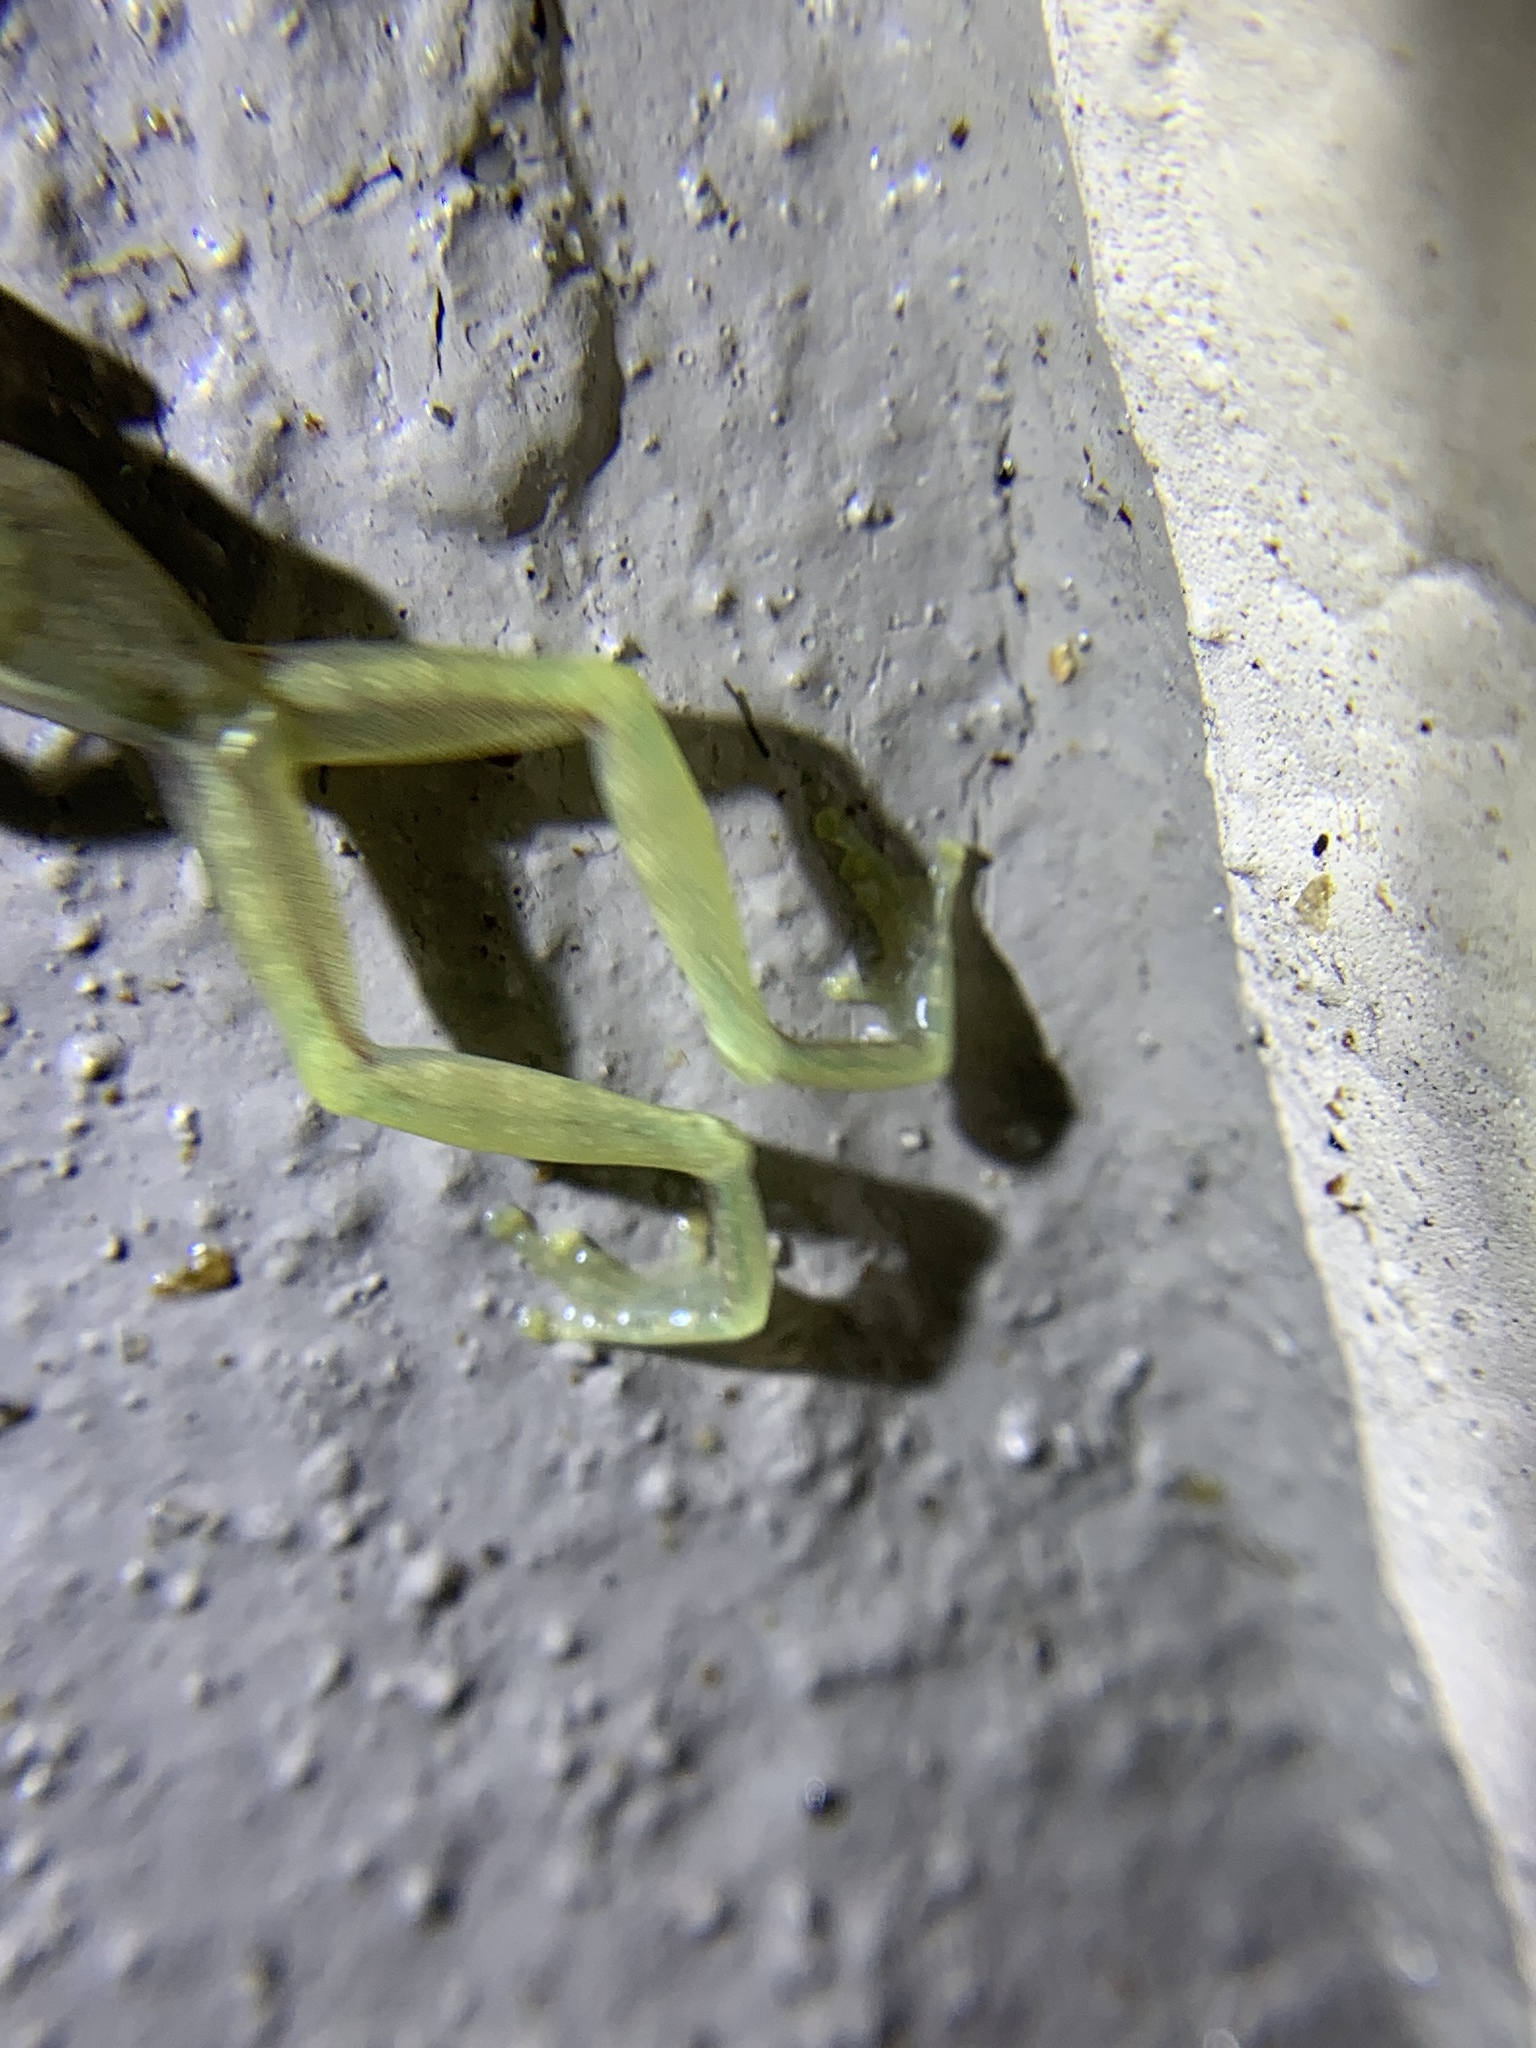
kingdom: Animalia
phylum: Chordata
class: Amphibia
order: Anura
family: Hylidae
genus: Osteopilus
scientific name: Osteopilus septentrionalis
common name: Cuban treefrog
